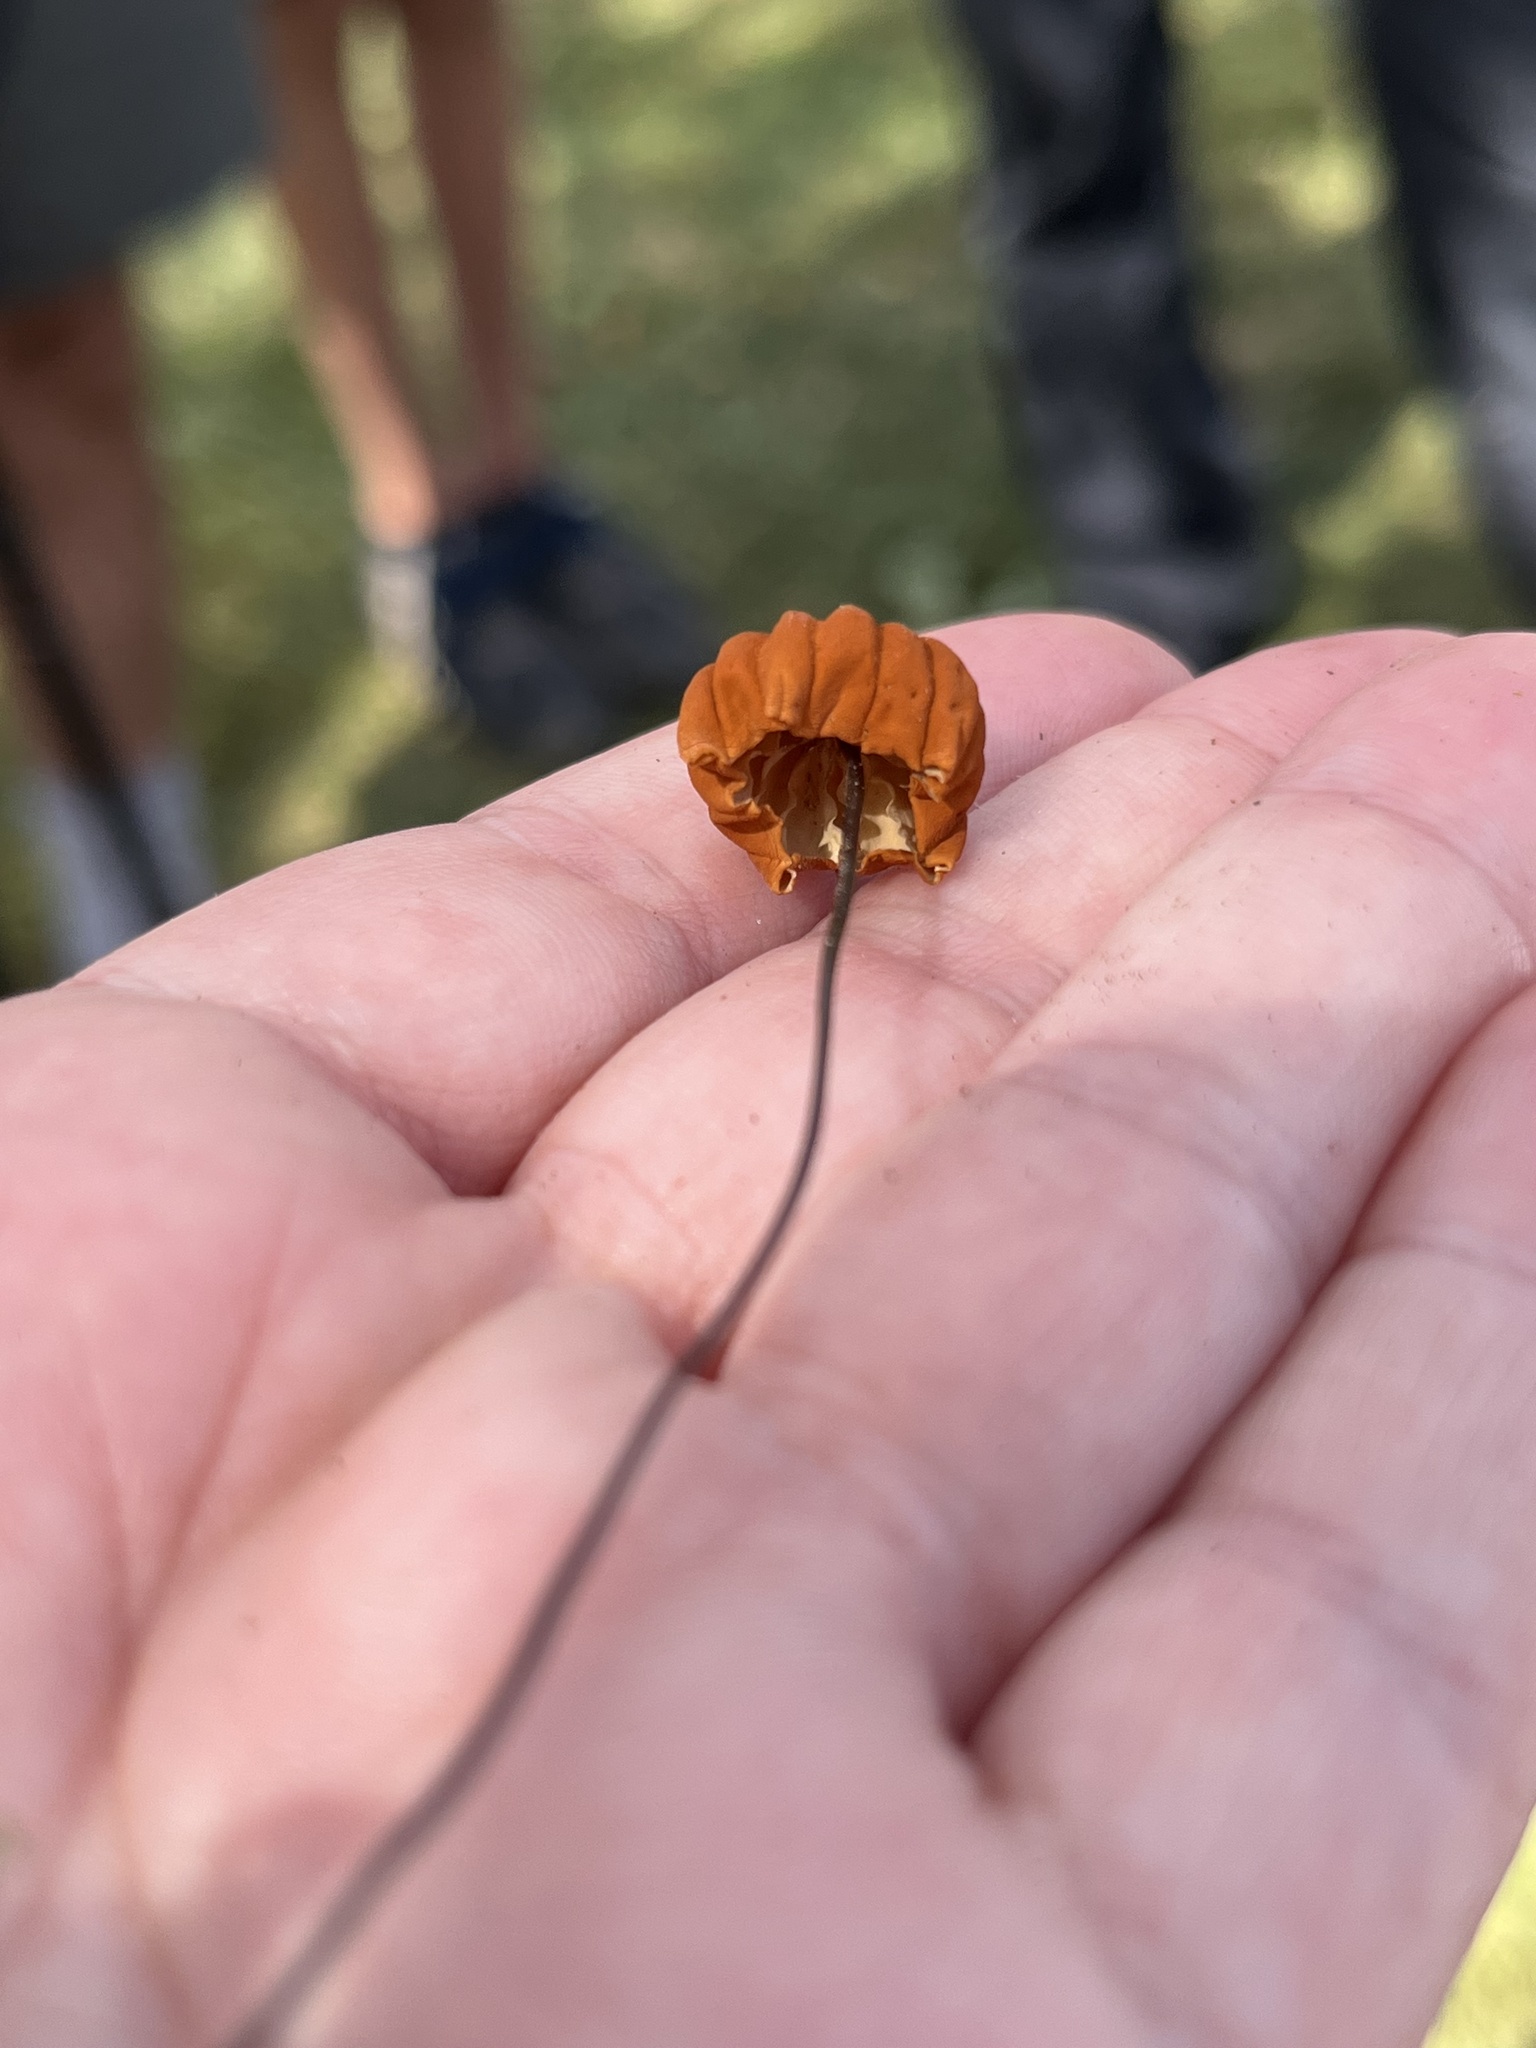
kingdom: Fungi
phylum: Basidiomycota
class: Agaricomycetes
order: Agaricales
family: Marasmiaceae
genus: Marasmius
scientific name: Marasmius siccus
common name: Orange pinwheel
